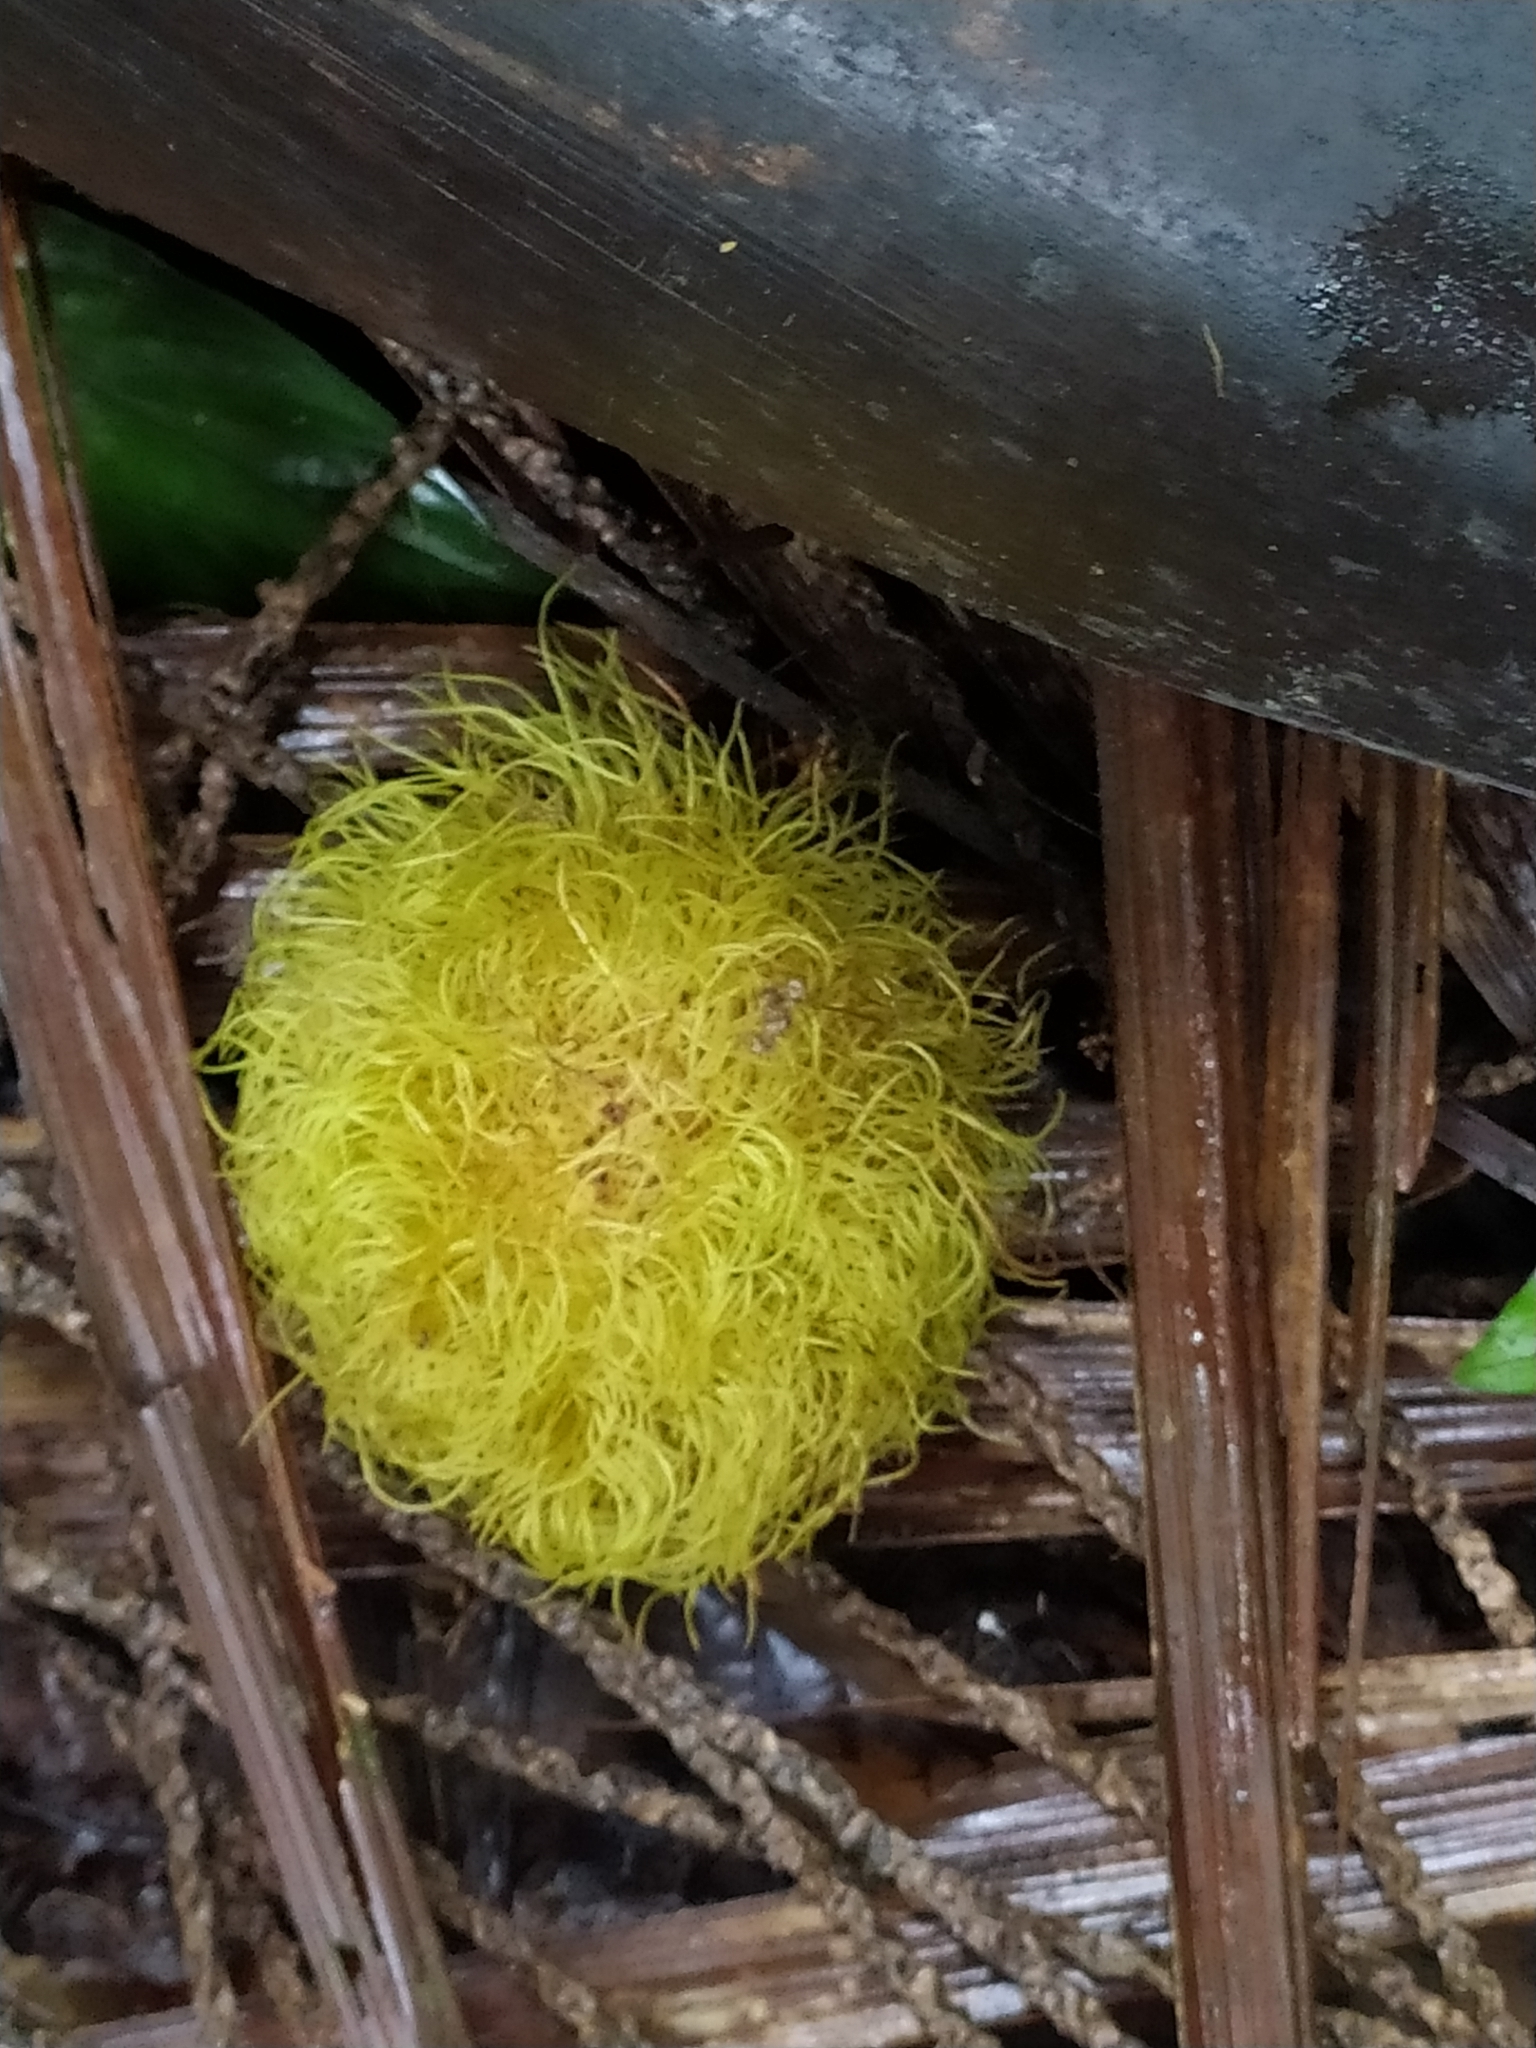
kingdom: Plantae
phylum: Tracheophyta
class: Magnoliopsida
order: Oxalidales
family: Elaeocarpaceae
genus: Sloanea
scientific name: Sloanea grandiflora
